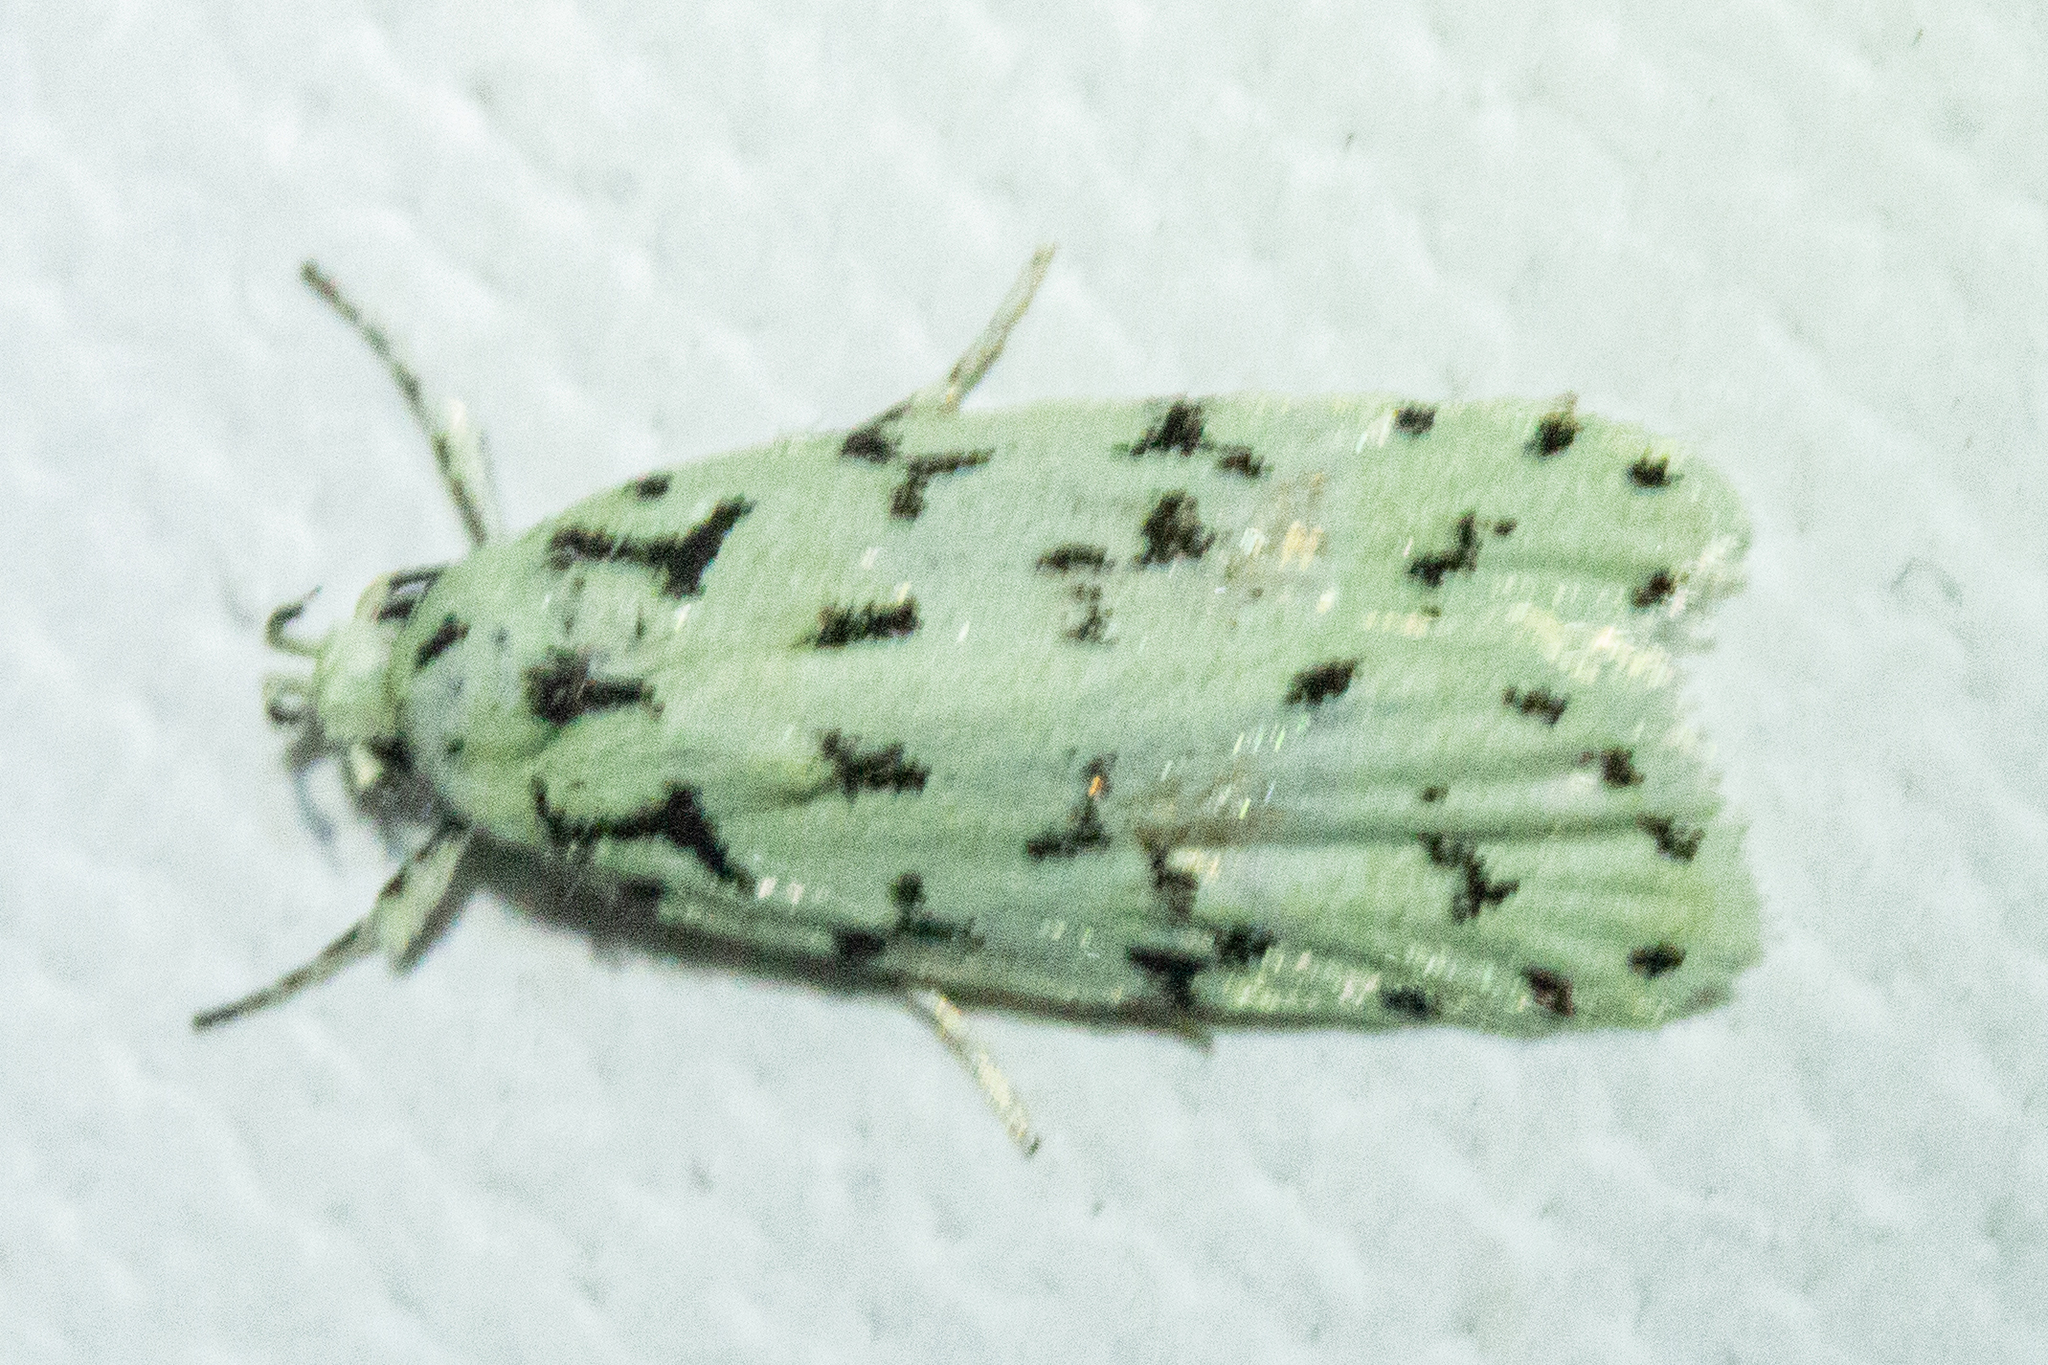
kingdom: Animalia
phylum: Arthropoda
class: Insecta
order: Lepidoptera
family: Oecophoridae
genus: Izatha
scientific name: Izatha huttoni
